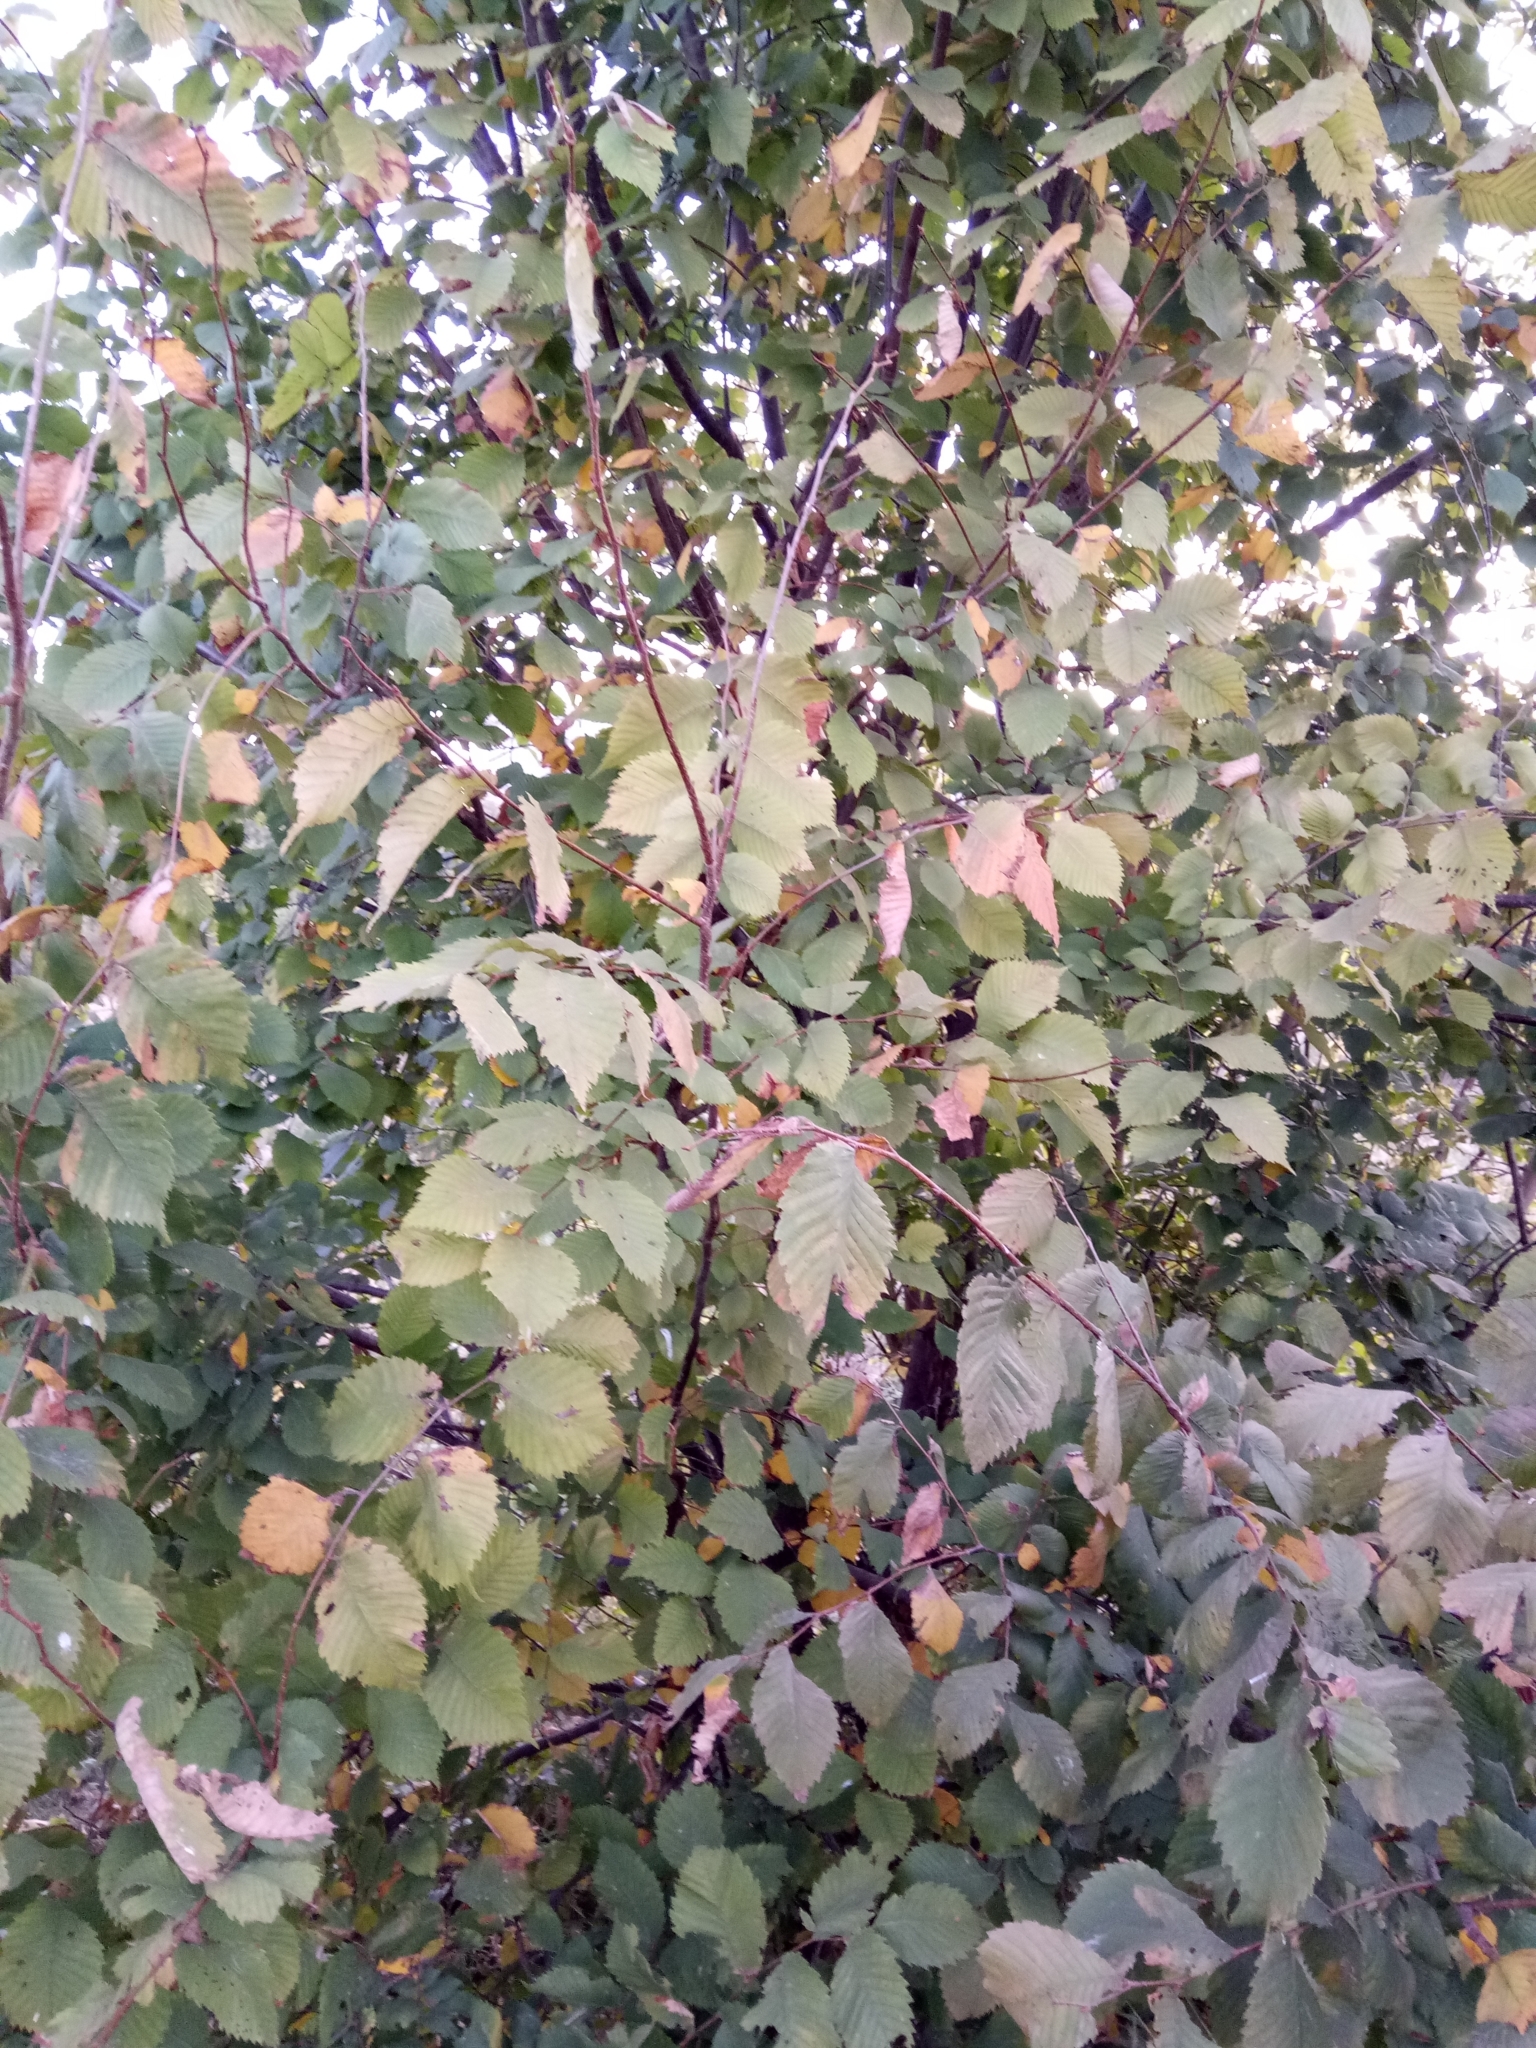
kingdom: Plantae
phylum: Tracheophyta
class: Magnoliopsida
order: Rosales
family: Ulmaceae
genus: Ulmus
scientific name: Ulmus glabra
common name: Wych elm
